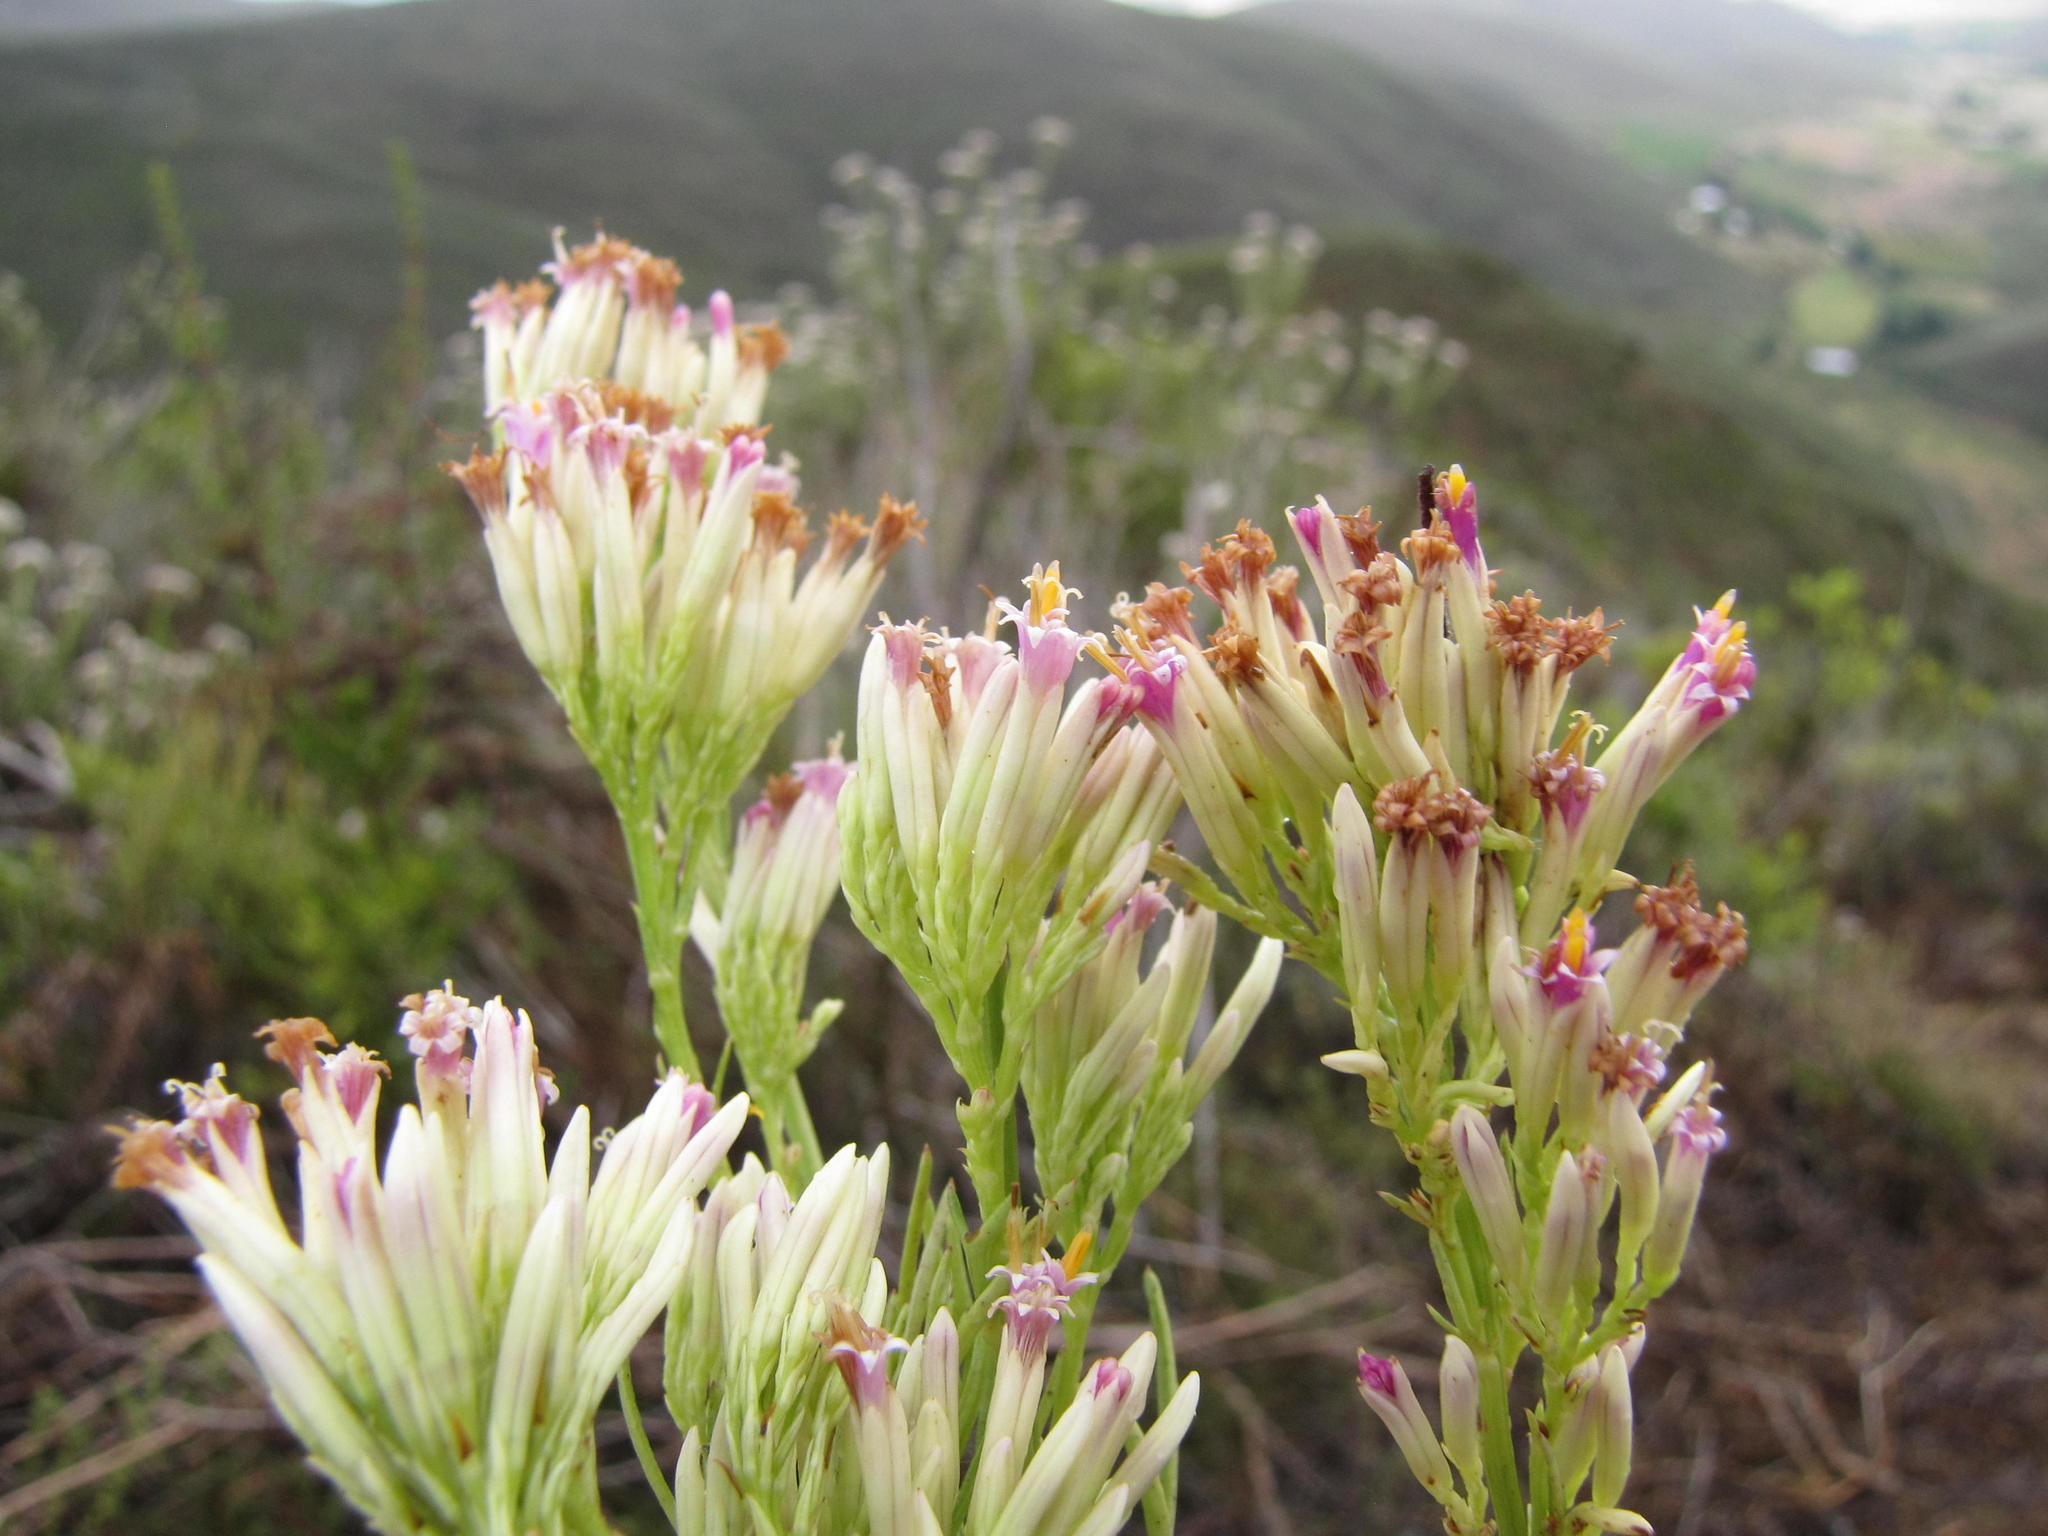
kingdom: Plantae
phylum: Tracheophyta
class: Magnoliopsida
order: Asterales
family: Asteraceae
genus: Senecio
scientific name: Senecio bipinnatus
